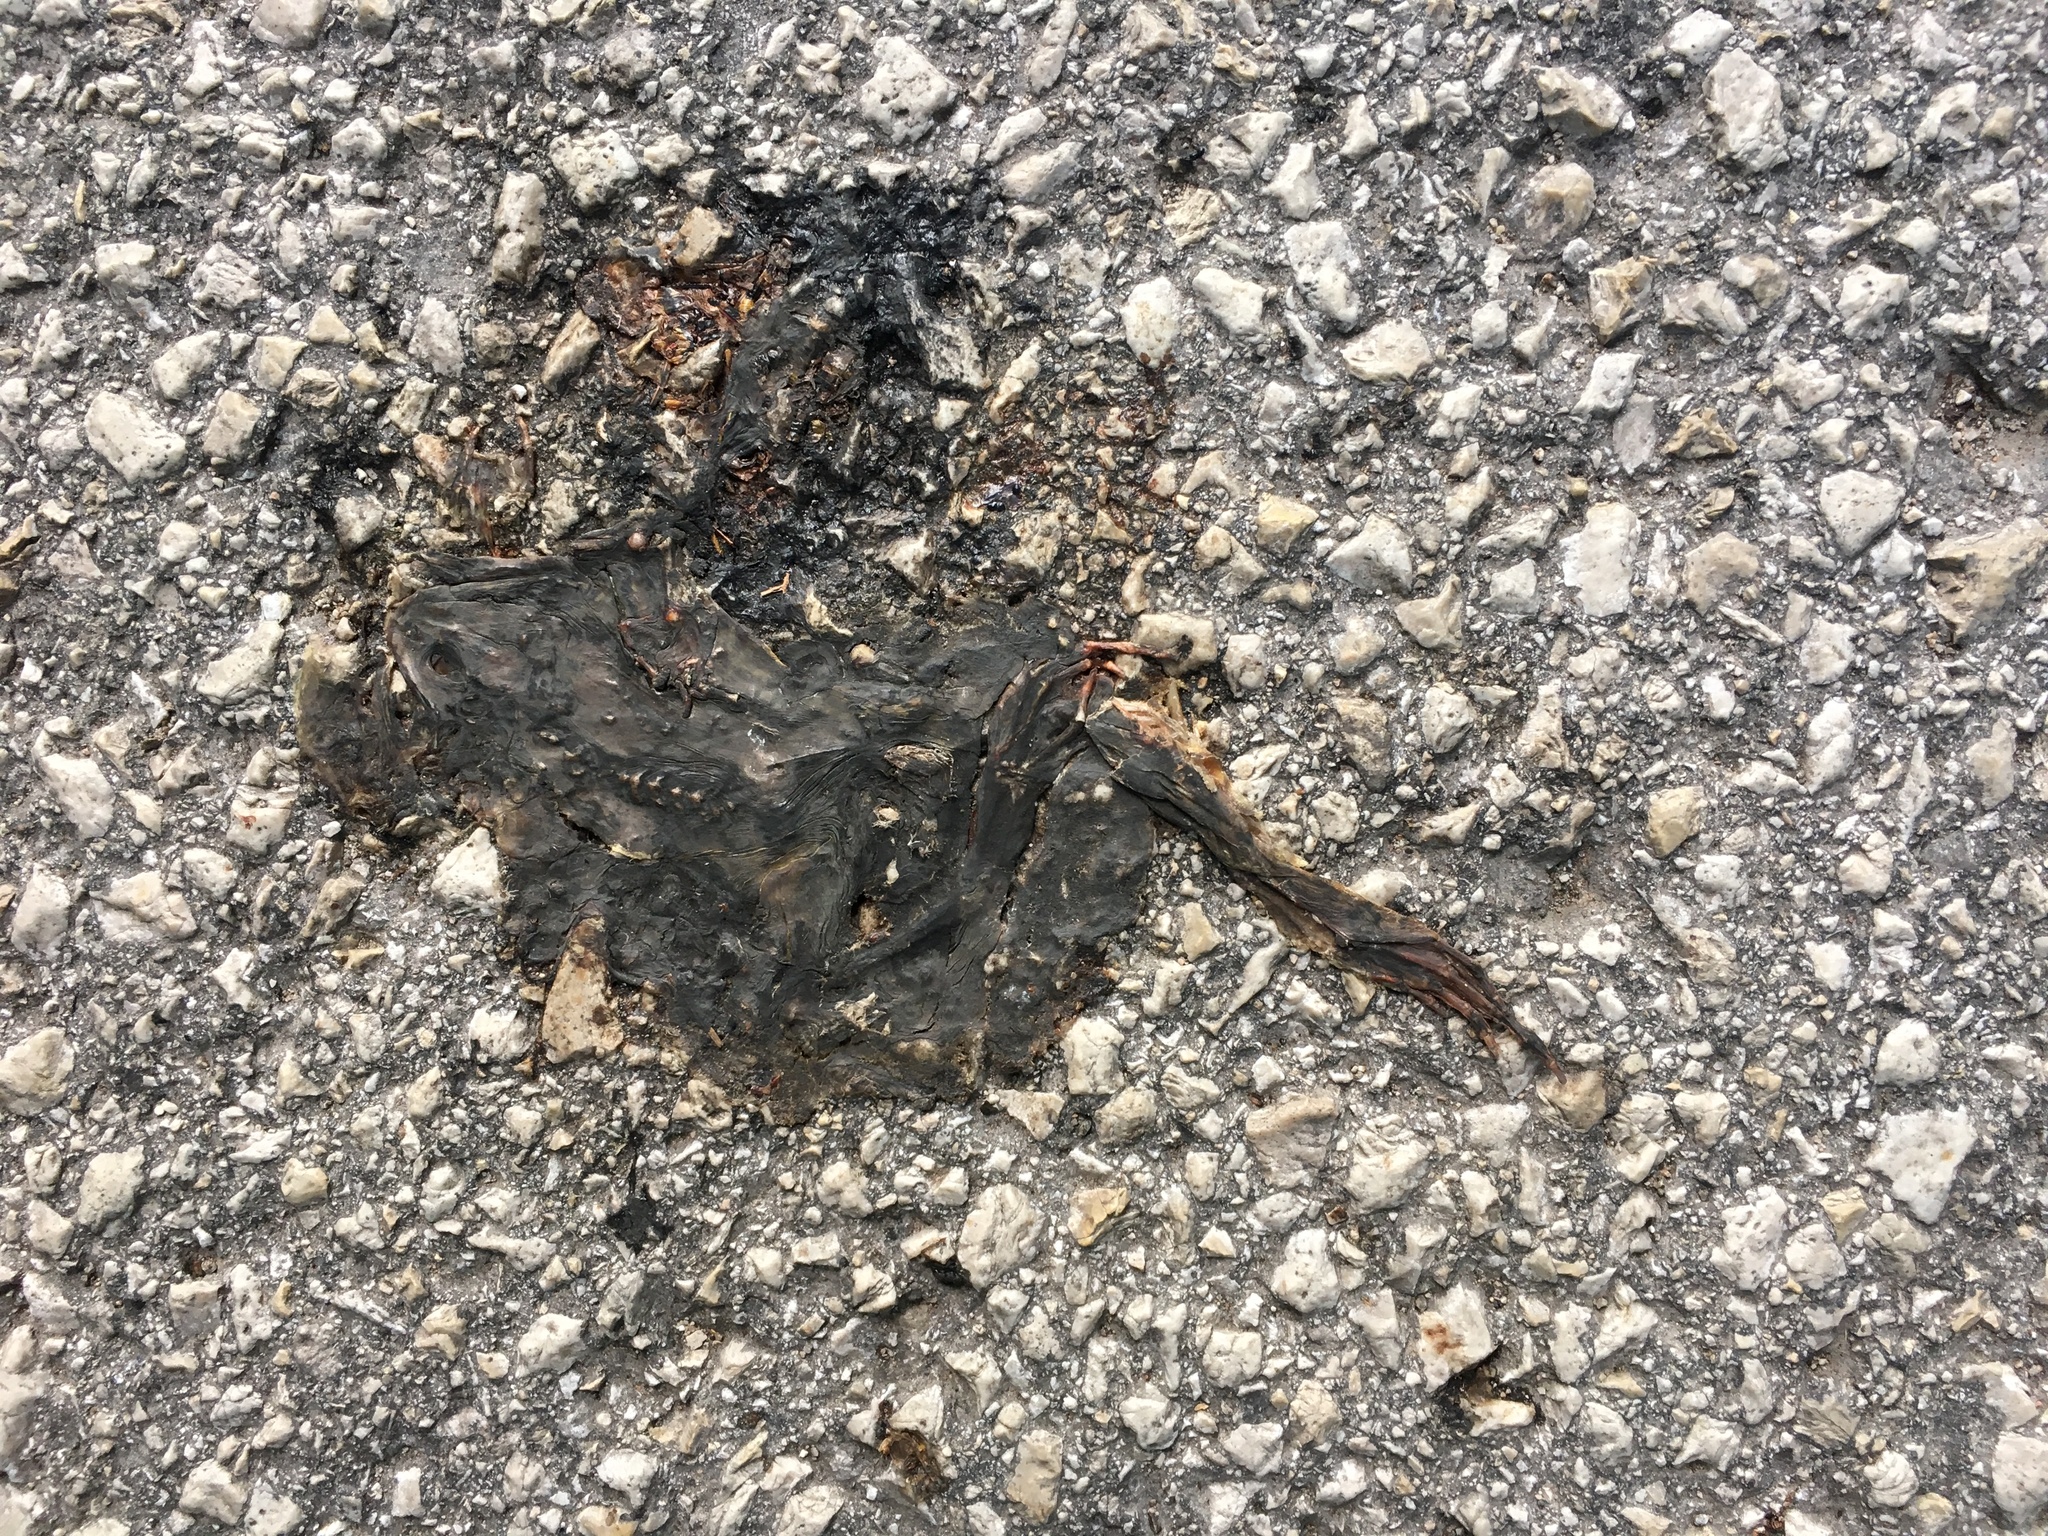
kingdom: Animalia
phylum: Chordata
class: Amphibia
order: Anura
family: Ranidae
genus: Rana
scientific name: Rana temporaria
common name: Common frog
